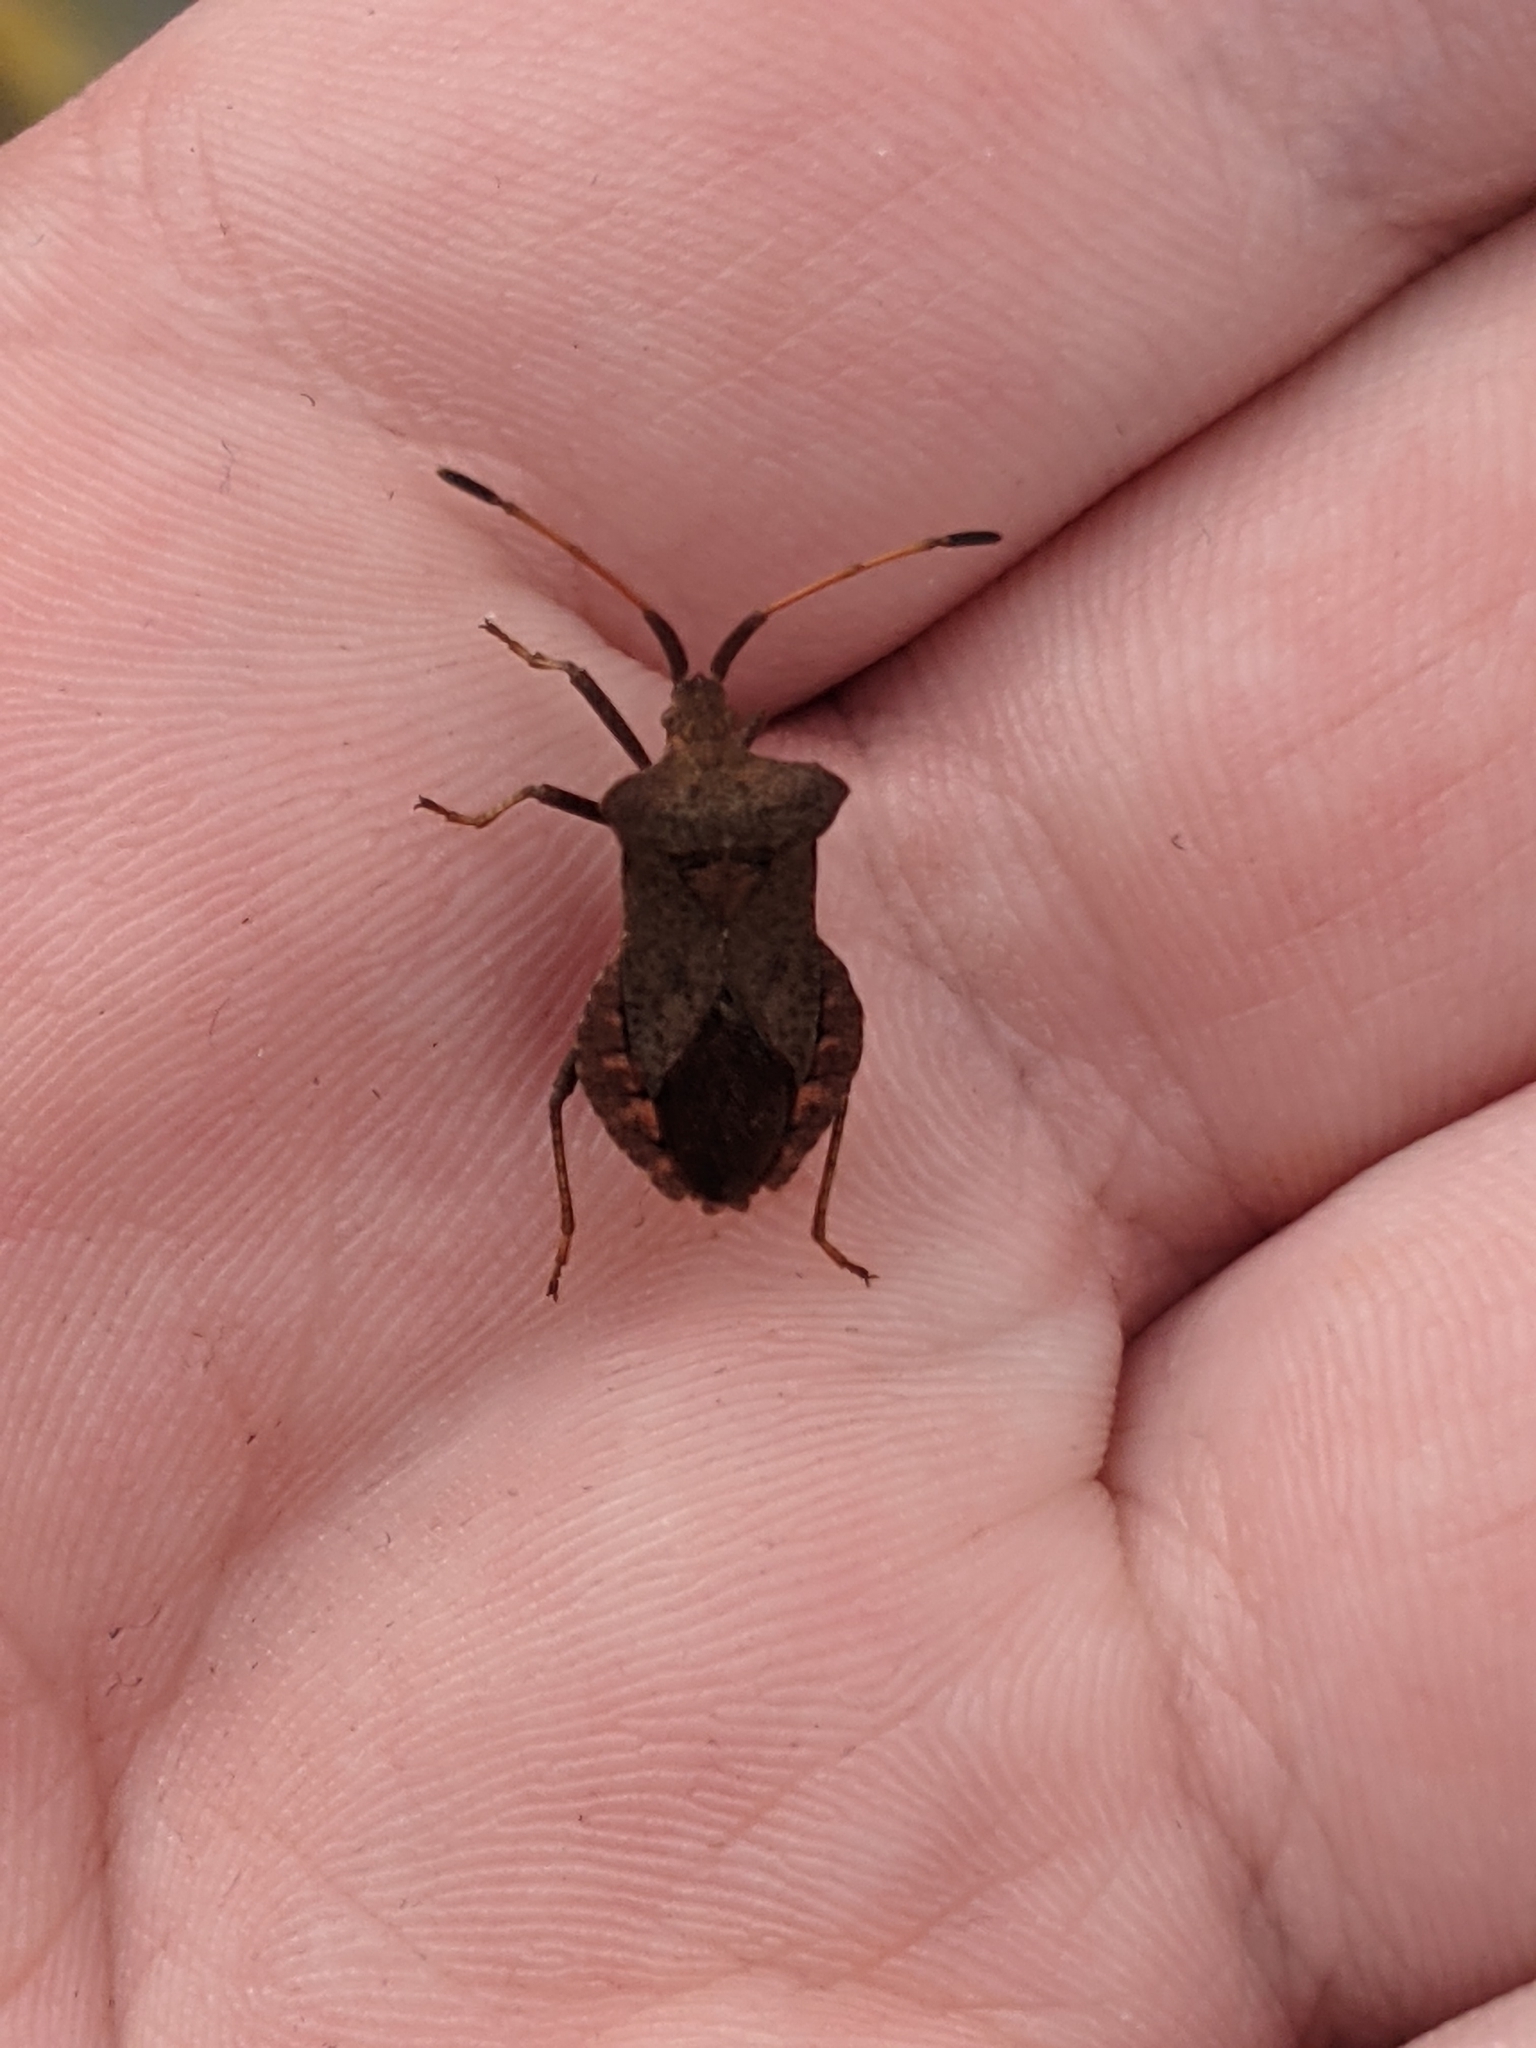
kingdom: Animalia
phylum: Arthropoda
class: Insecta
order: Hemiptera
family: Coreidae
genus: Coreus
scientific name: Coreus marginatus
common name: Dock bug
